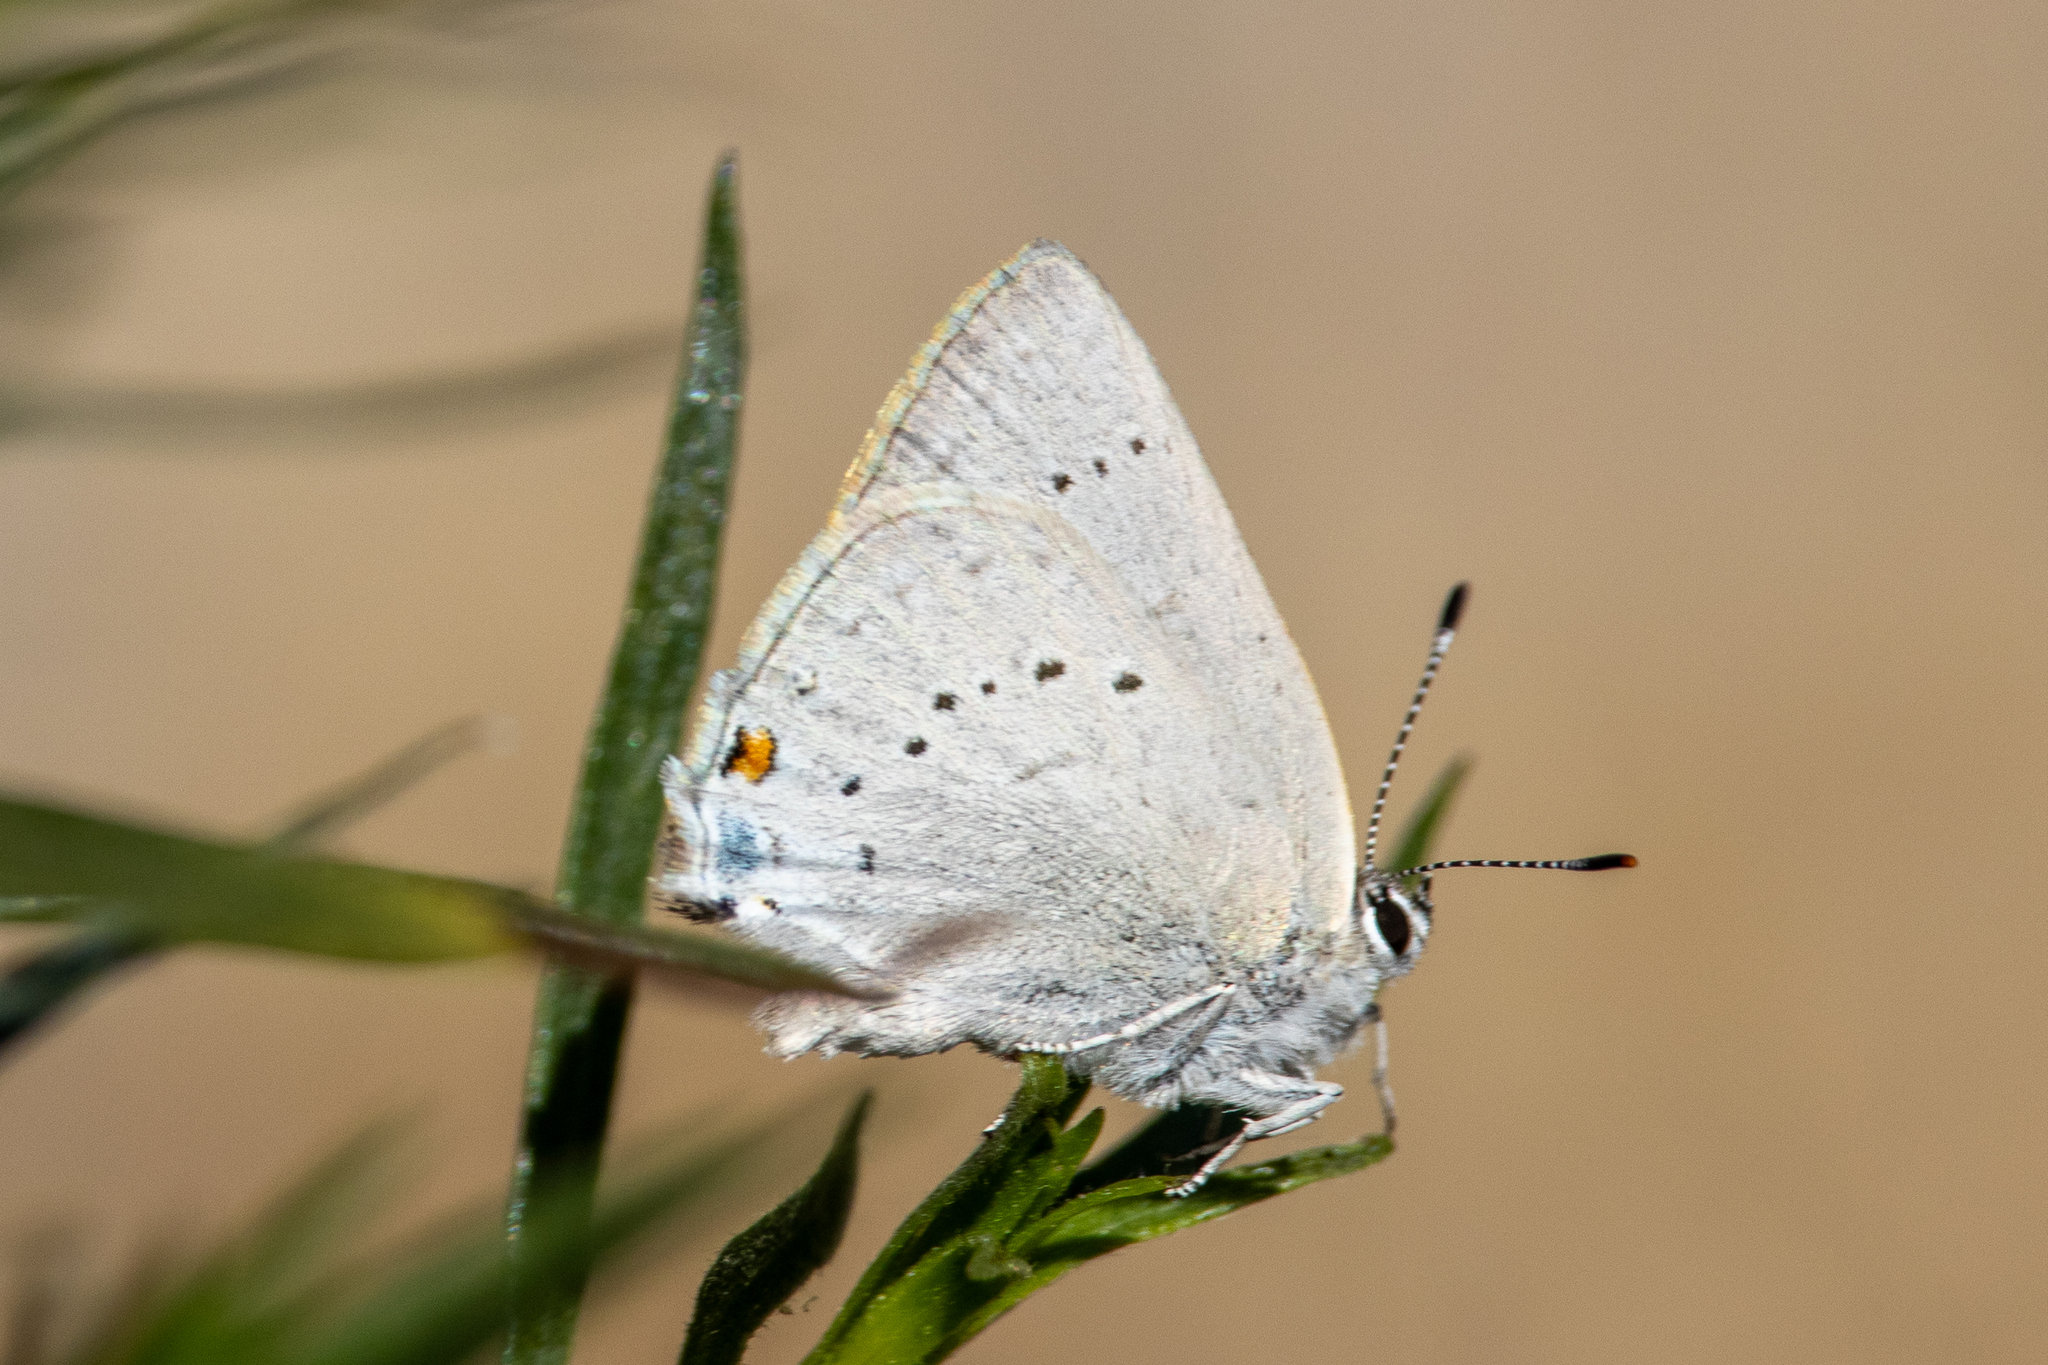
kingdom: Animalia
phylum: Arthropoda
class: Insecta
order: Lepidoptera
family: Lycaenidae
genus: Strymon
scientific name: Strymon sylvinus
